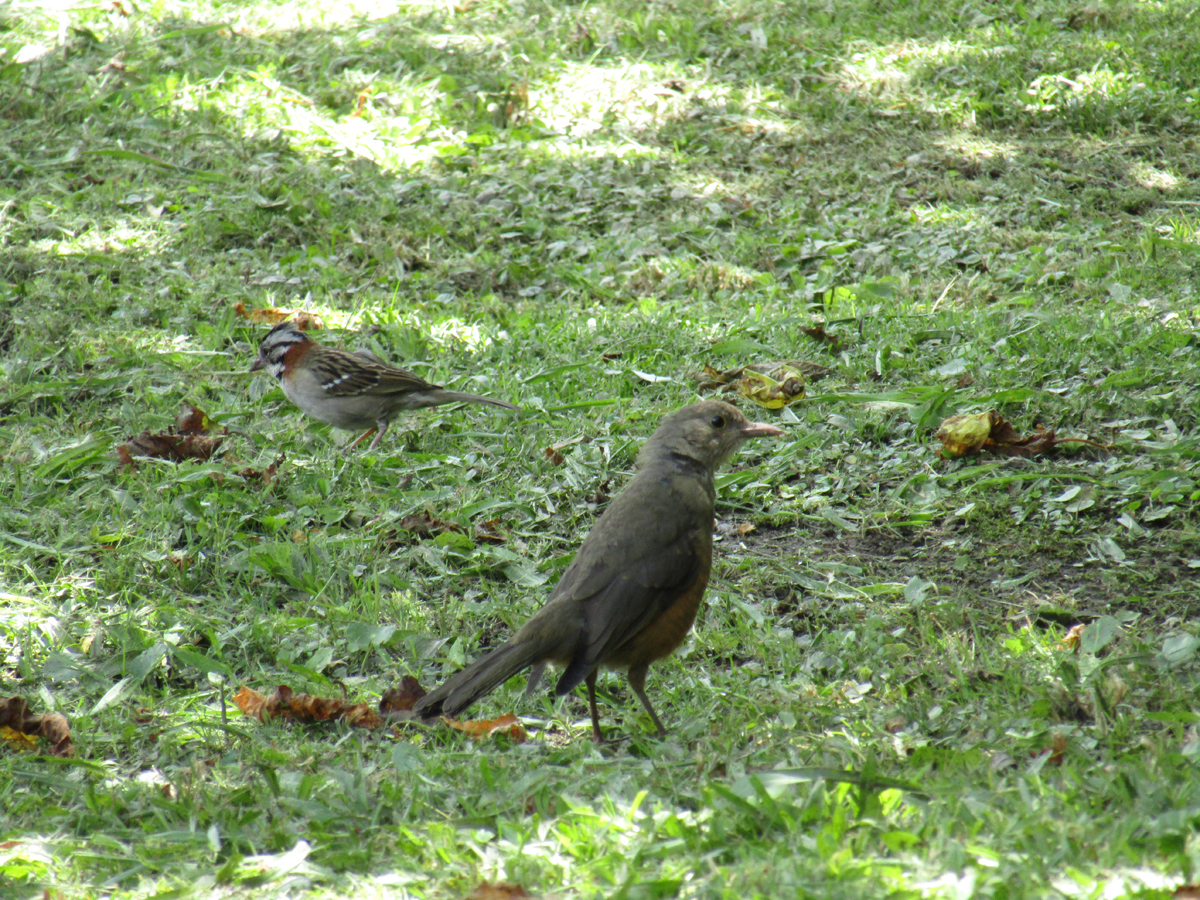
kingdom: Animalia
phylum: Chordata
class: Aves
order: Passeriformes
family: Turdidae
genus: Turdus
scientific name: Turdus rufiventris
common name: Rufous-bellied thrush
